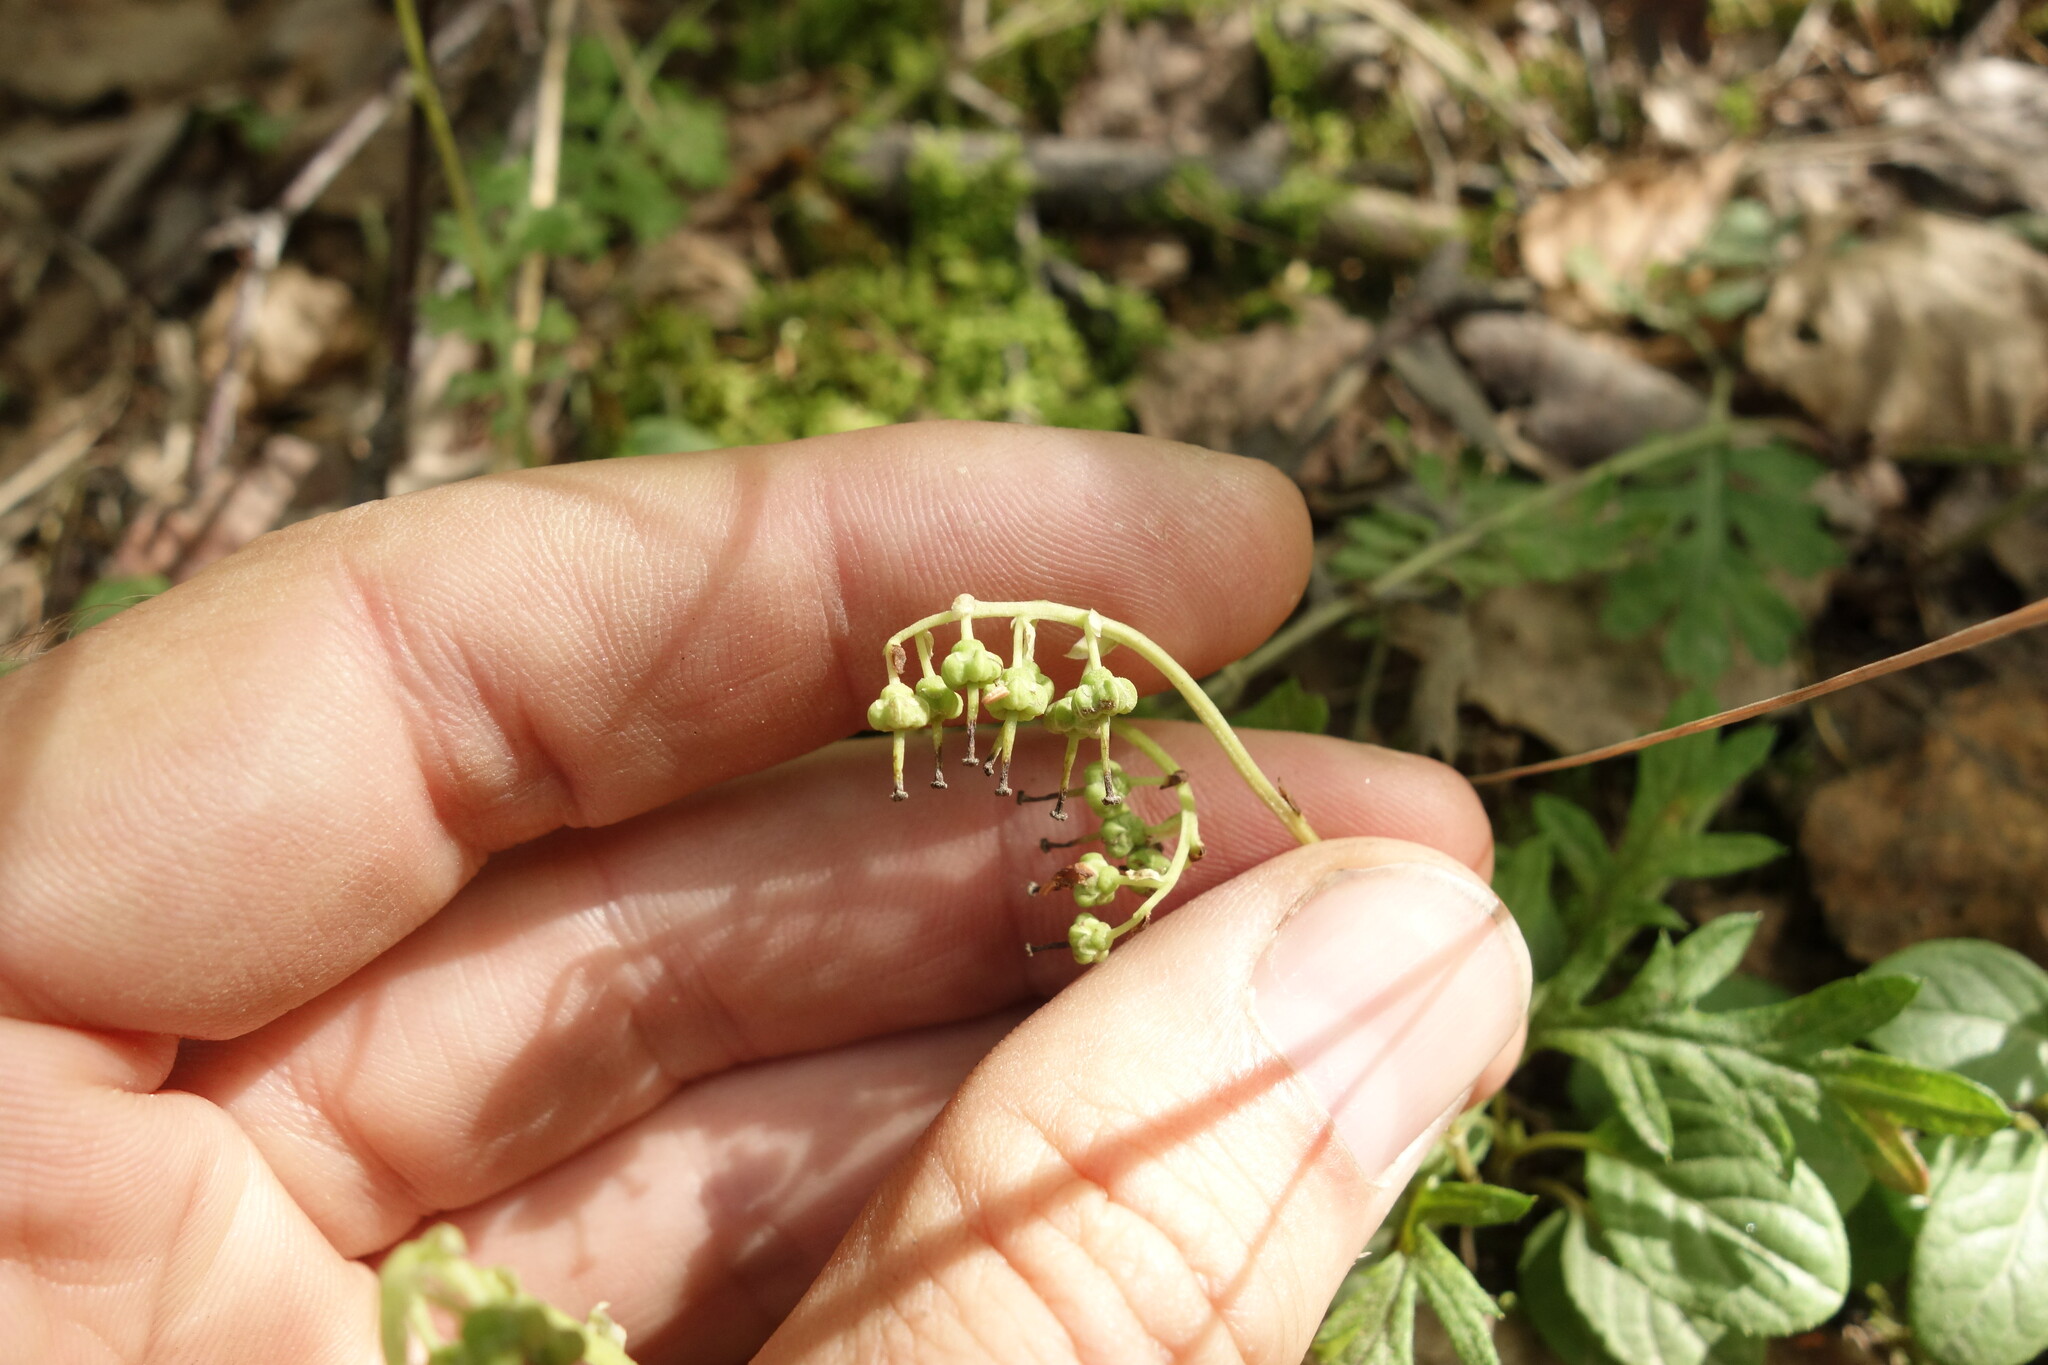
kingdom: Plantae
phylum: Tracheophyta
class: Magnoliopsida
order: Ericales
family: Ericaceae
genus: Orthilia
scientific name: Orthilia secunda
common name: One-sided orthilia
